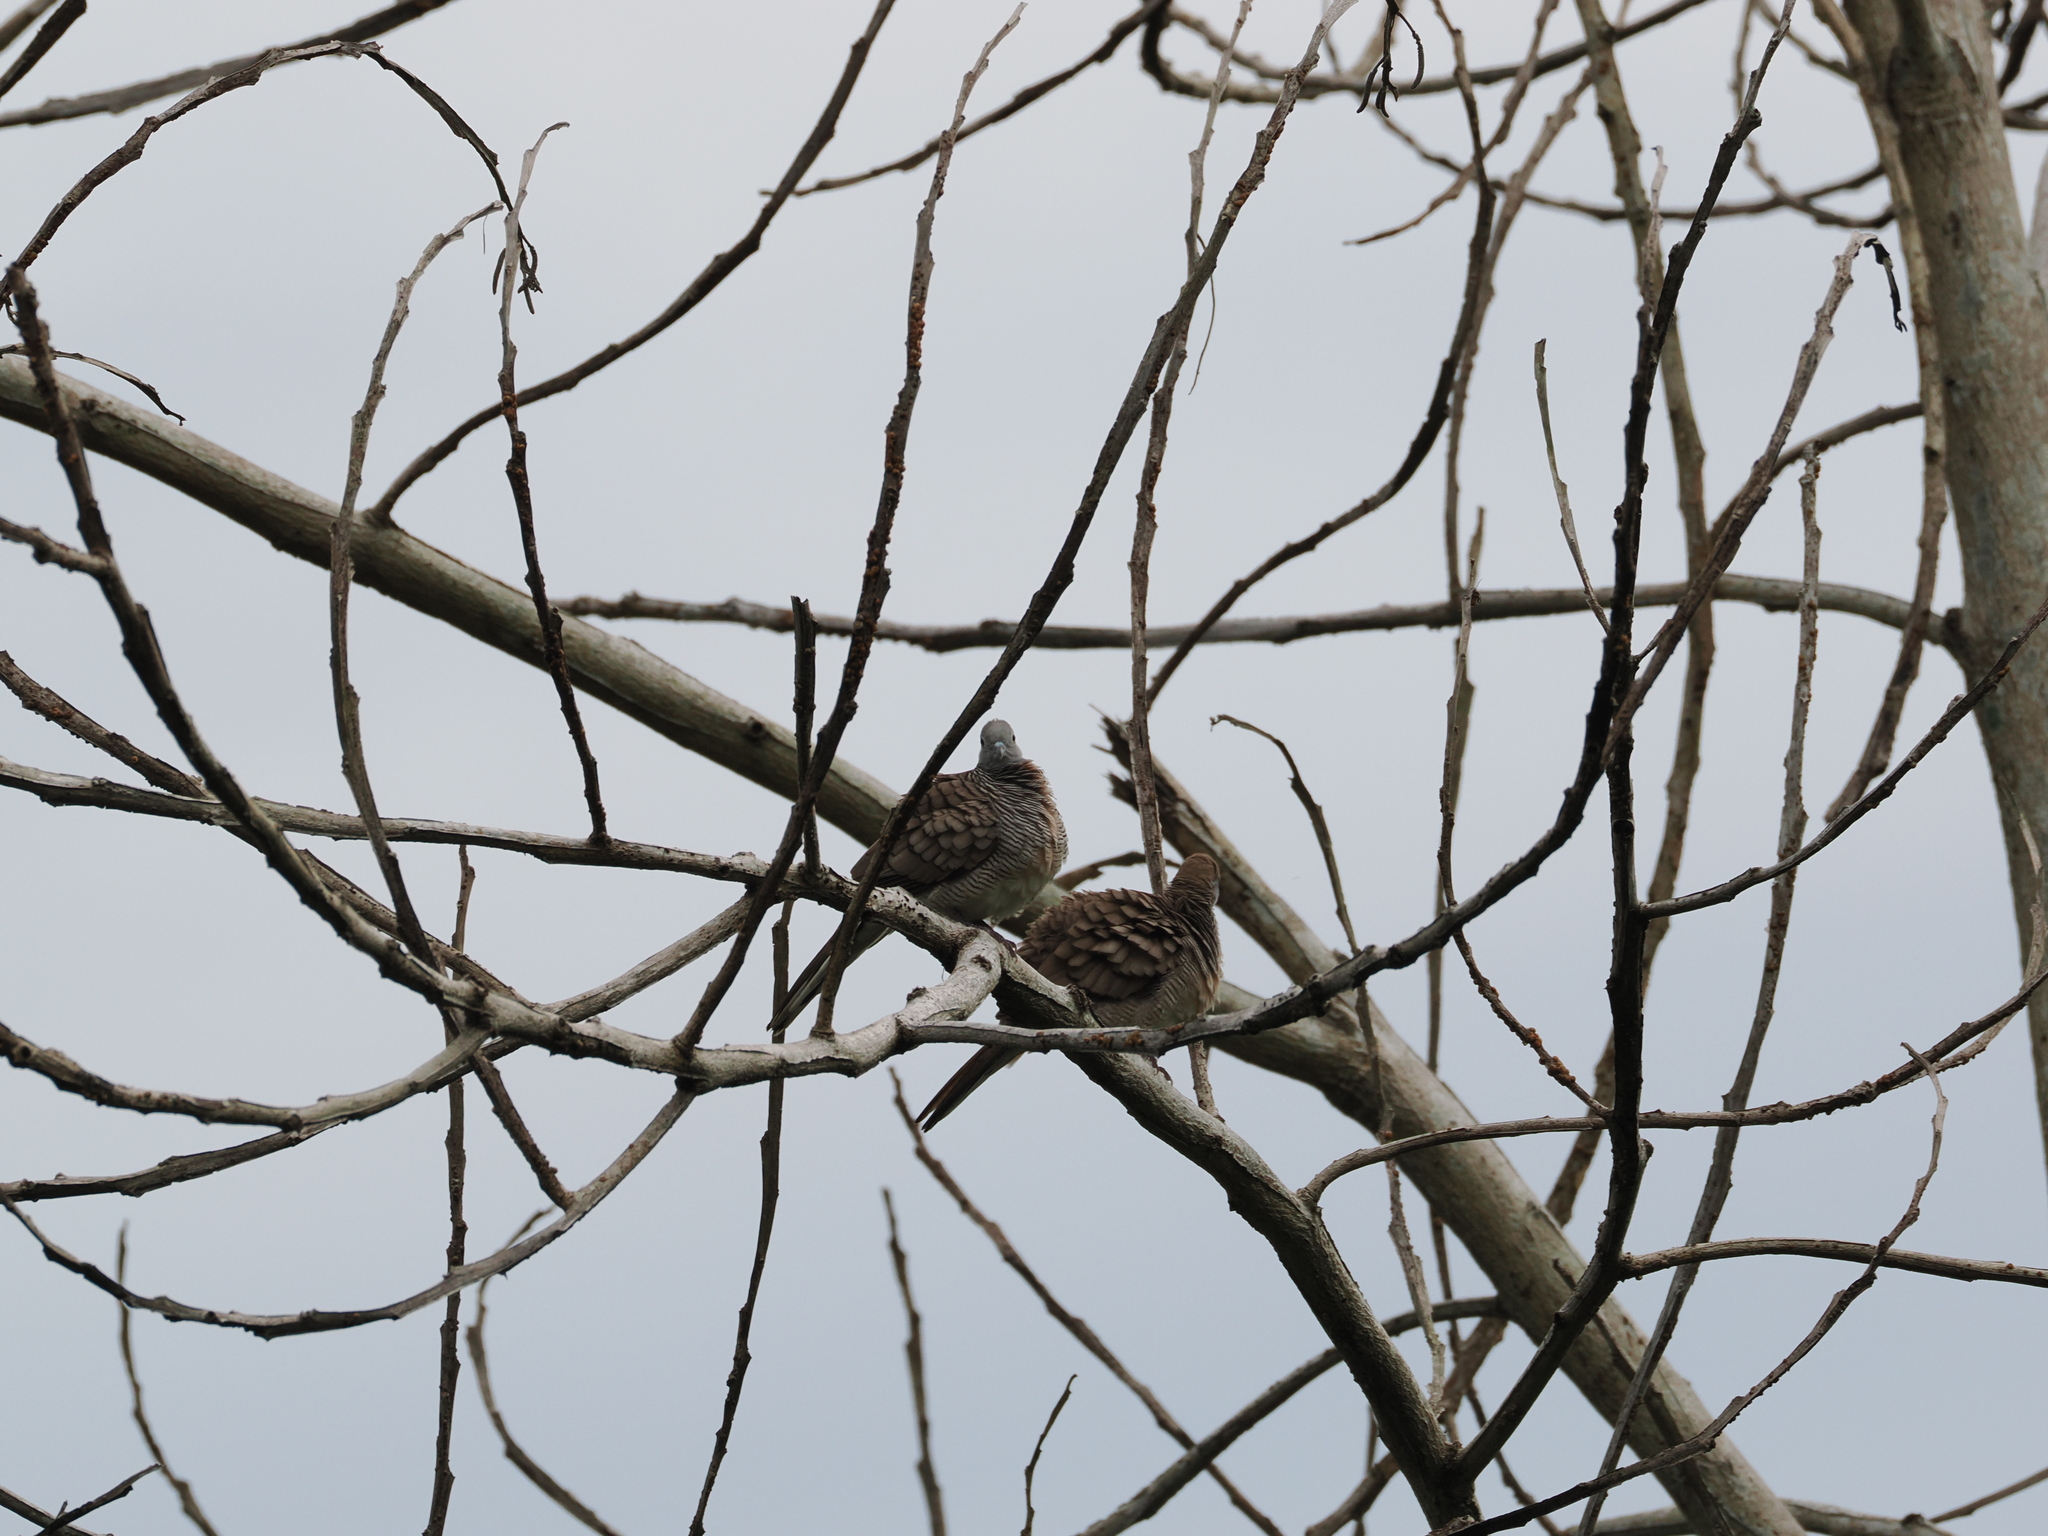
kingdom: Animalia
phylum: Chordata
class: Aves
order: Columbiformes
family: Columbidae
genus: Geopelia
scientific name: Geopelia striata
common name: Zebra dove
